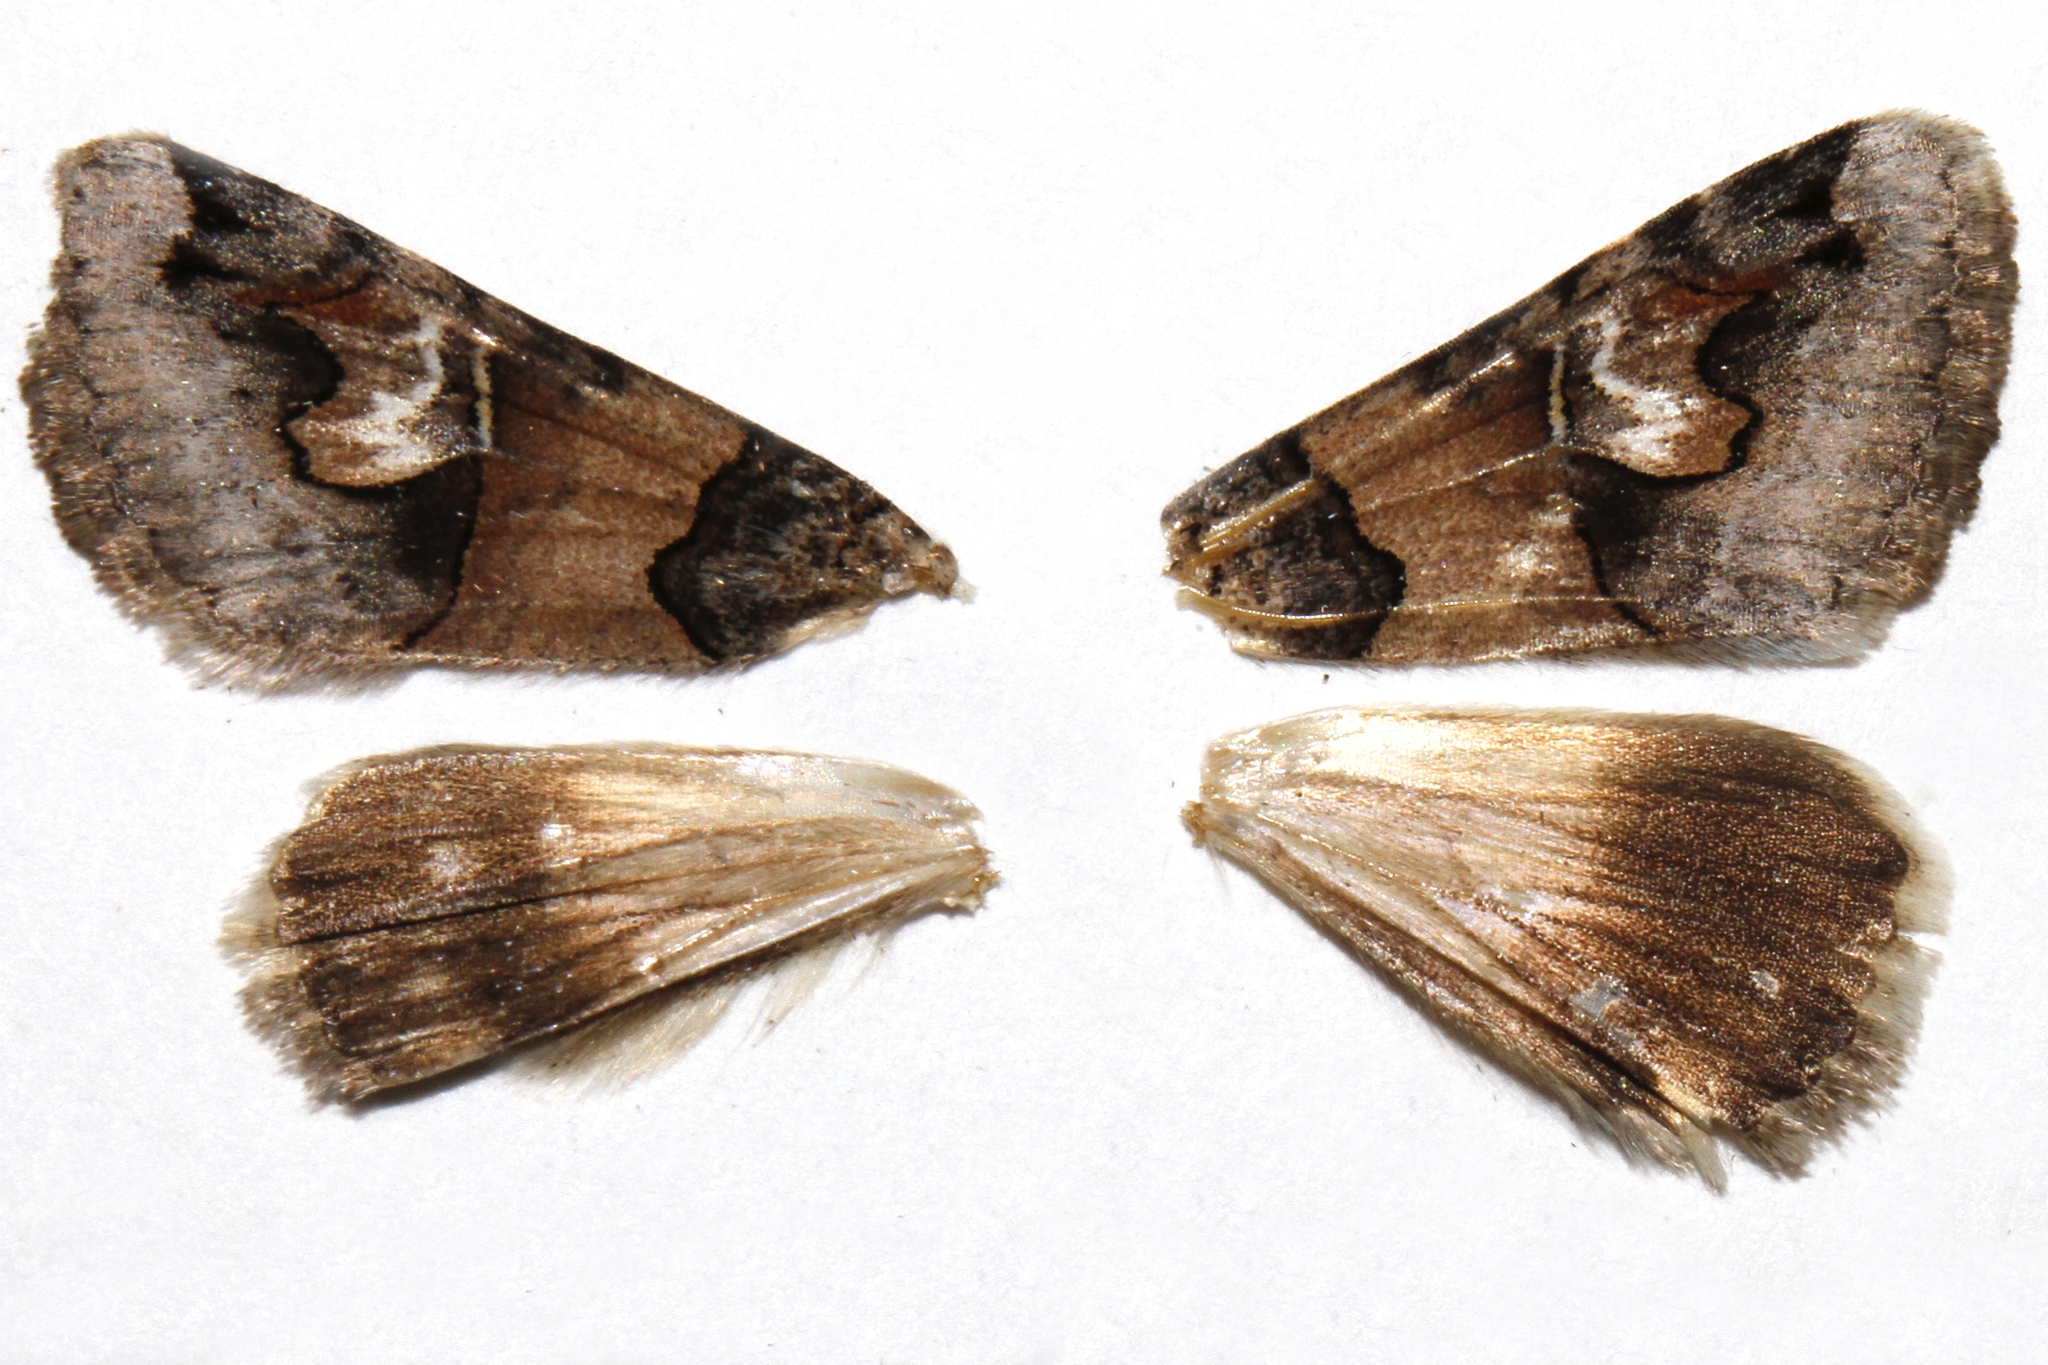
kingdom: Animalia
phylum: Arthropoda
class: Insecta
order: Lepidoptera
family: Erebidae
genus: Drasteria
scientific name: Drasteria fumosa
